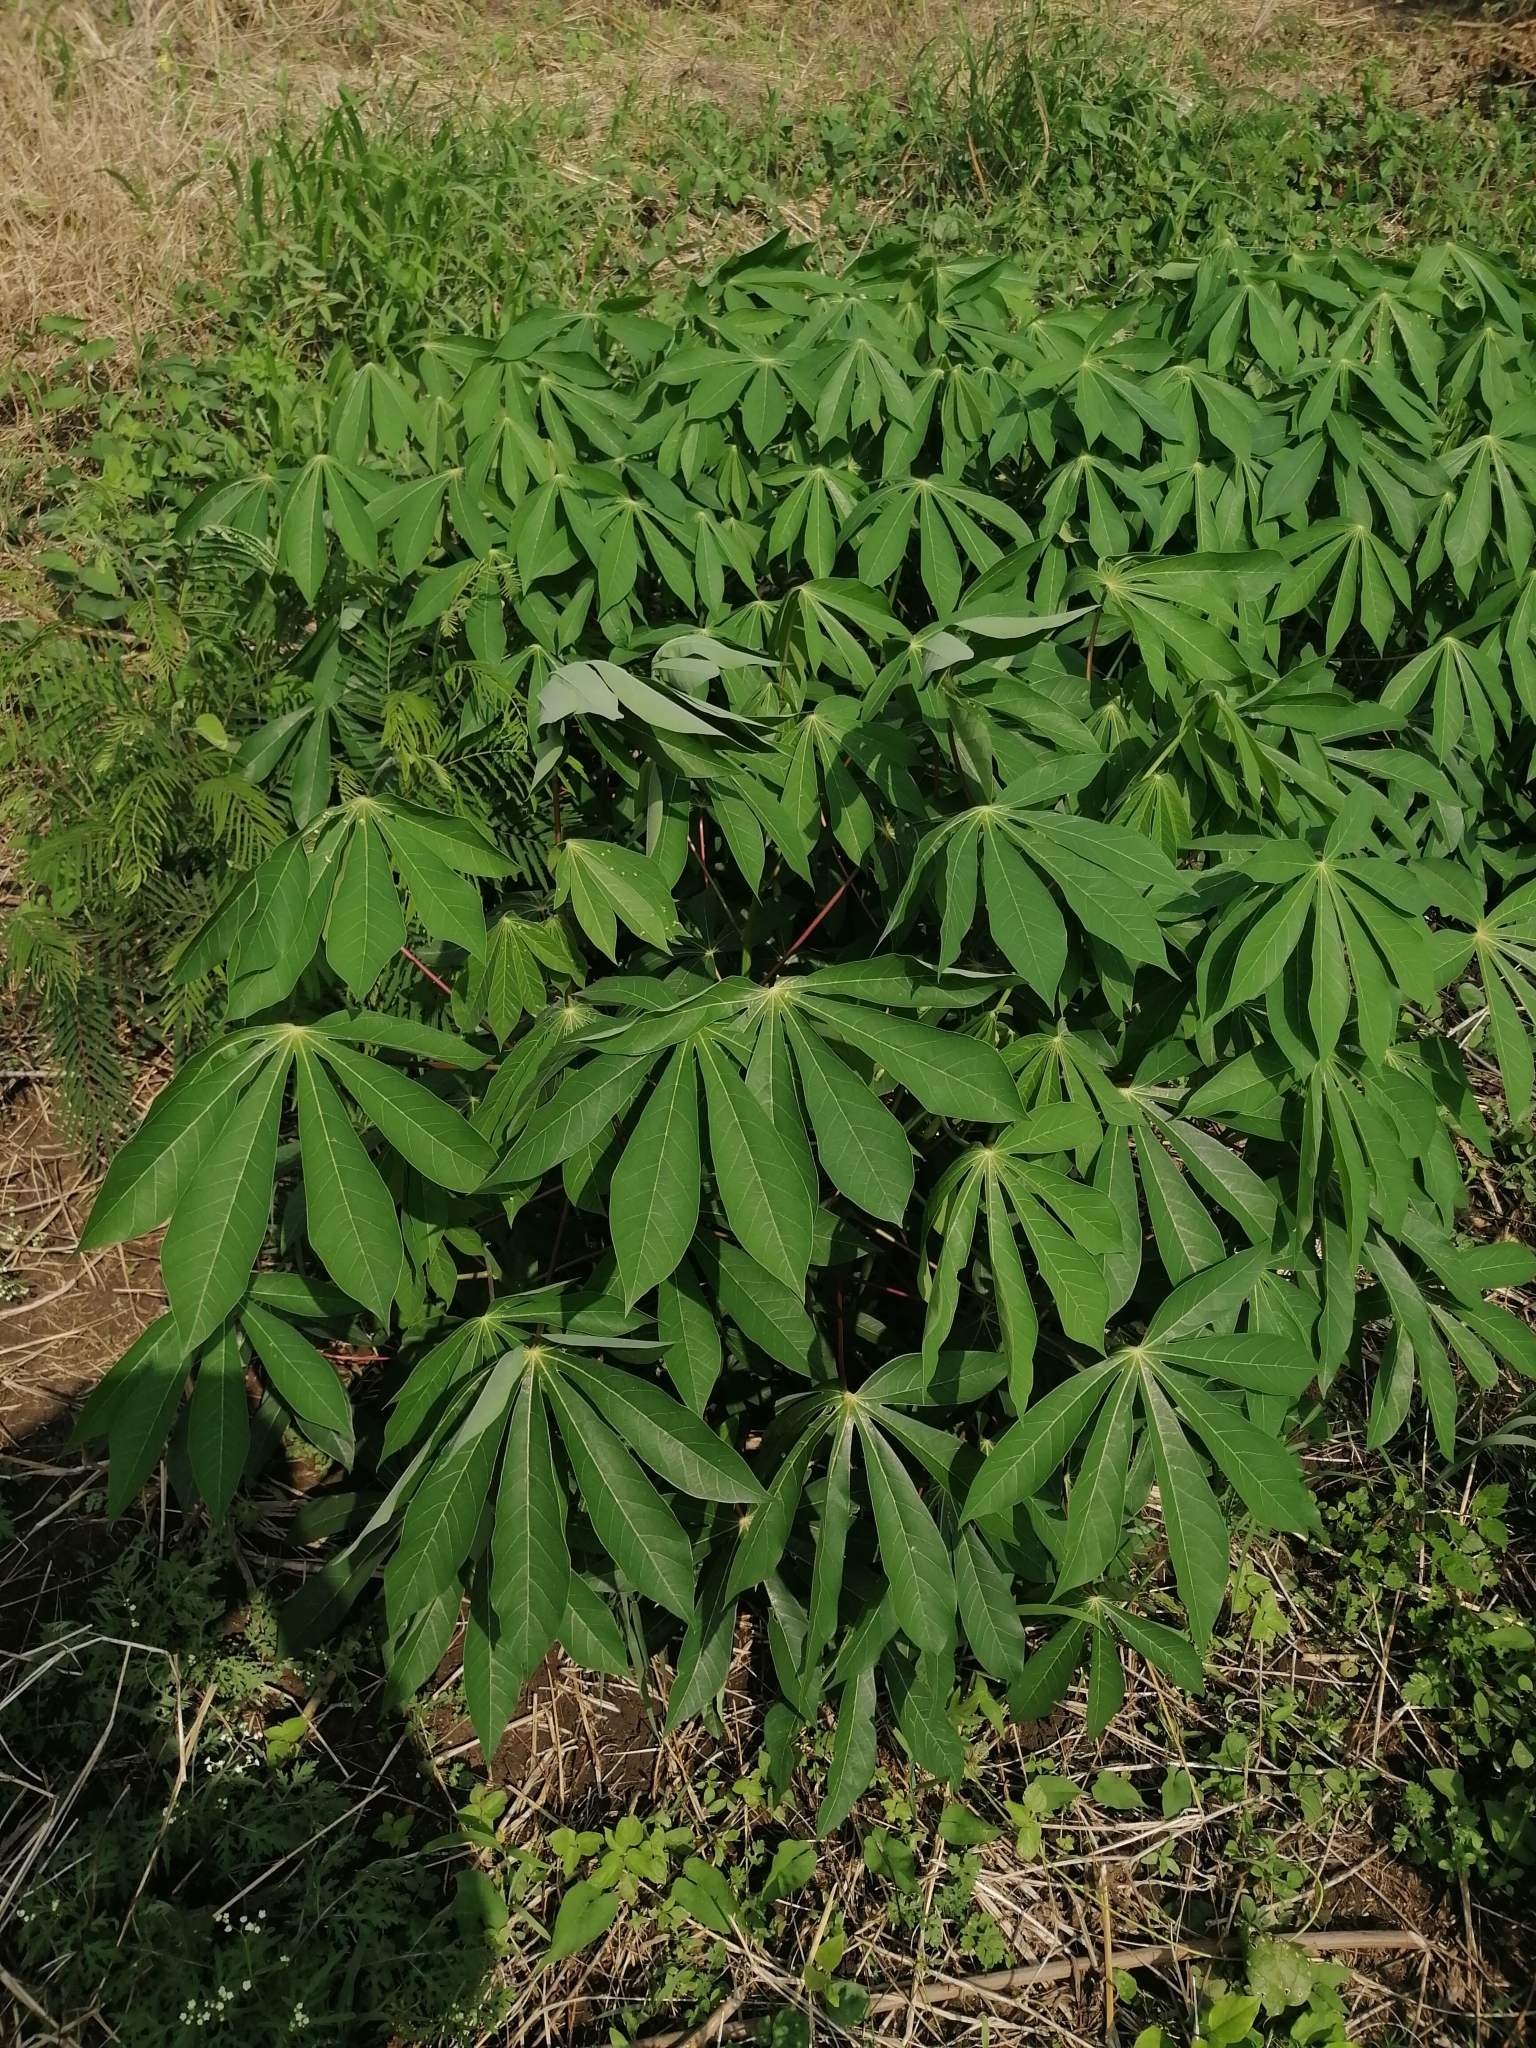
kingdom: Plantae
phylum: Tracheophyta
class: Magnoliopsida
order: Malpighiales
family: Euphorbiaceae
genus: Manihot
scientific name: Manihot esculenta
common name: Cassava
